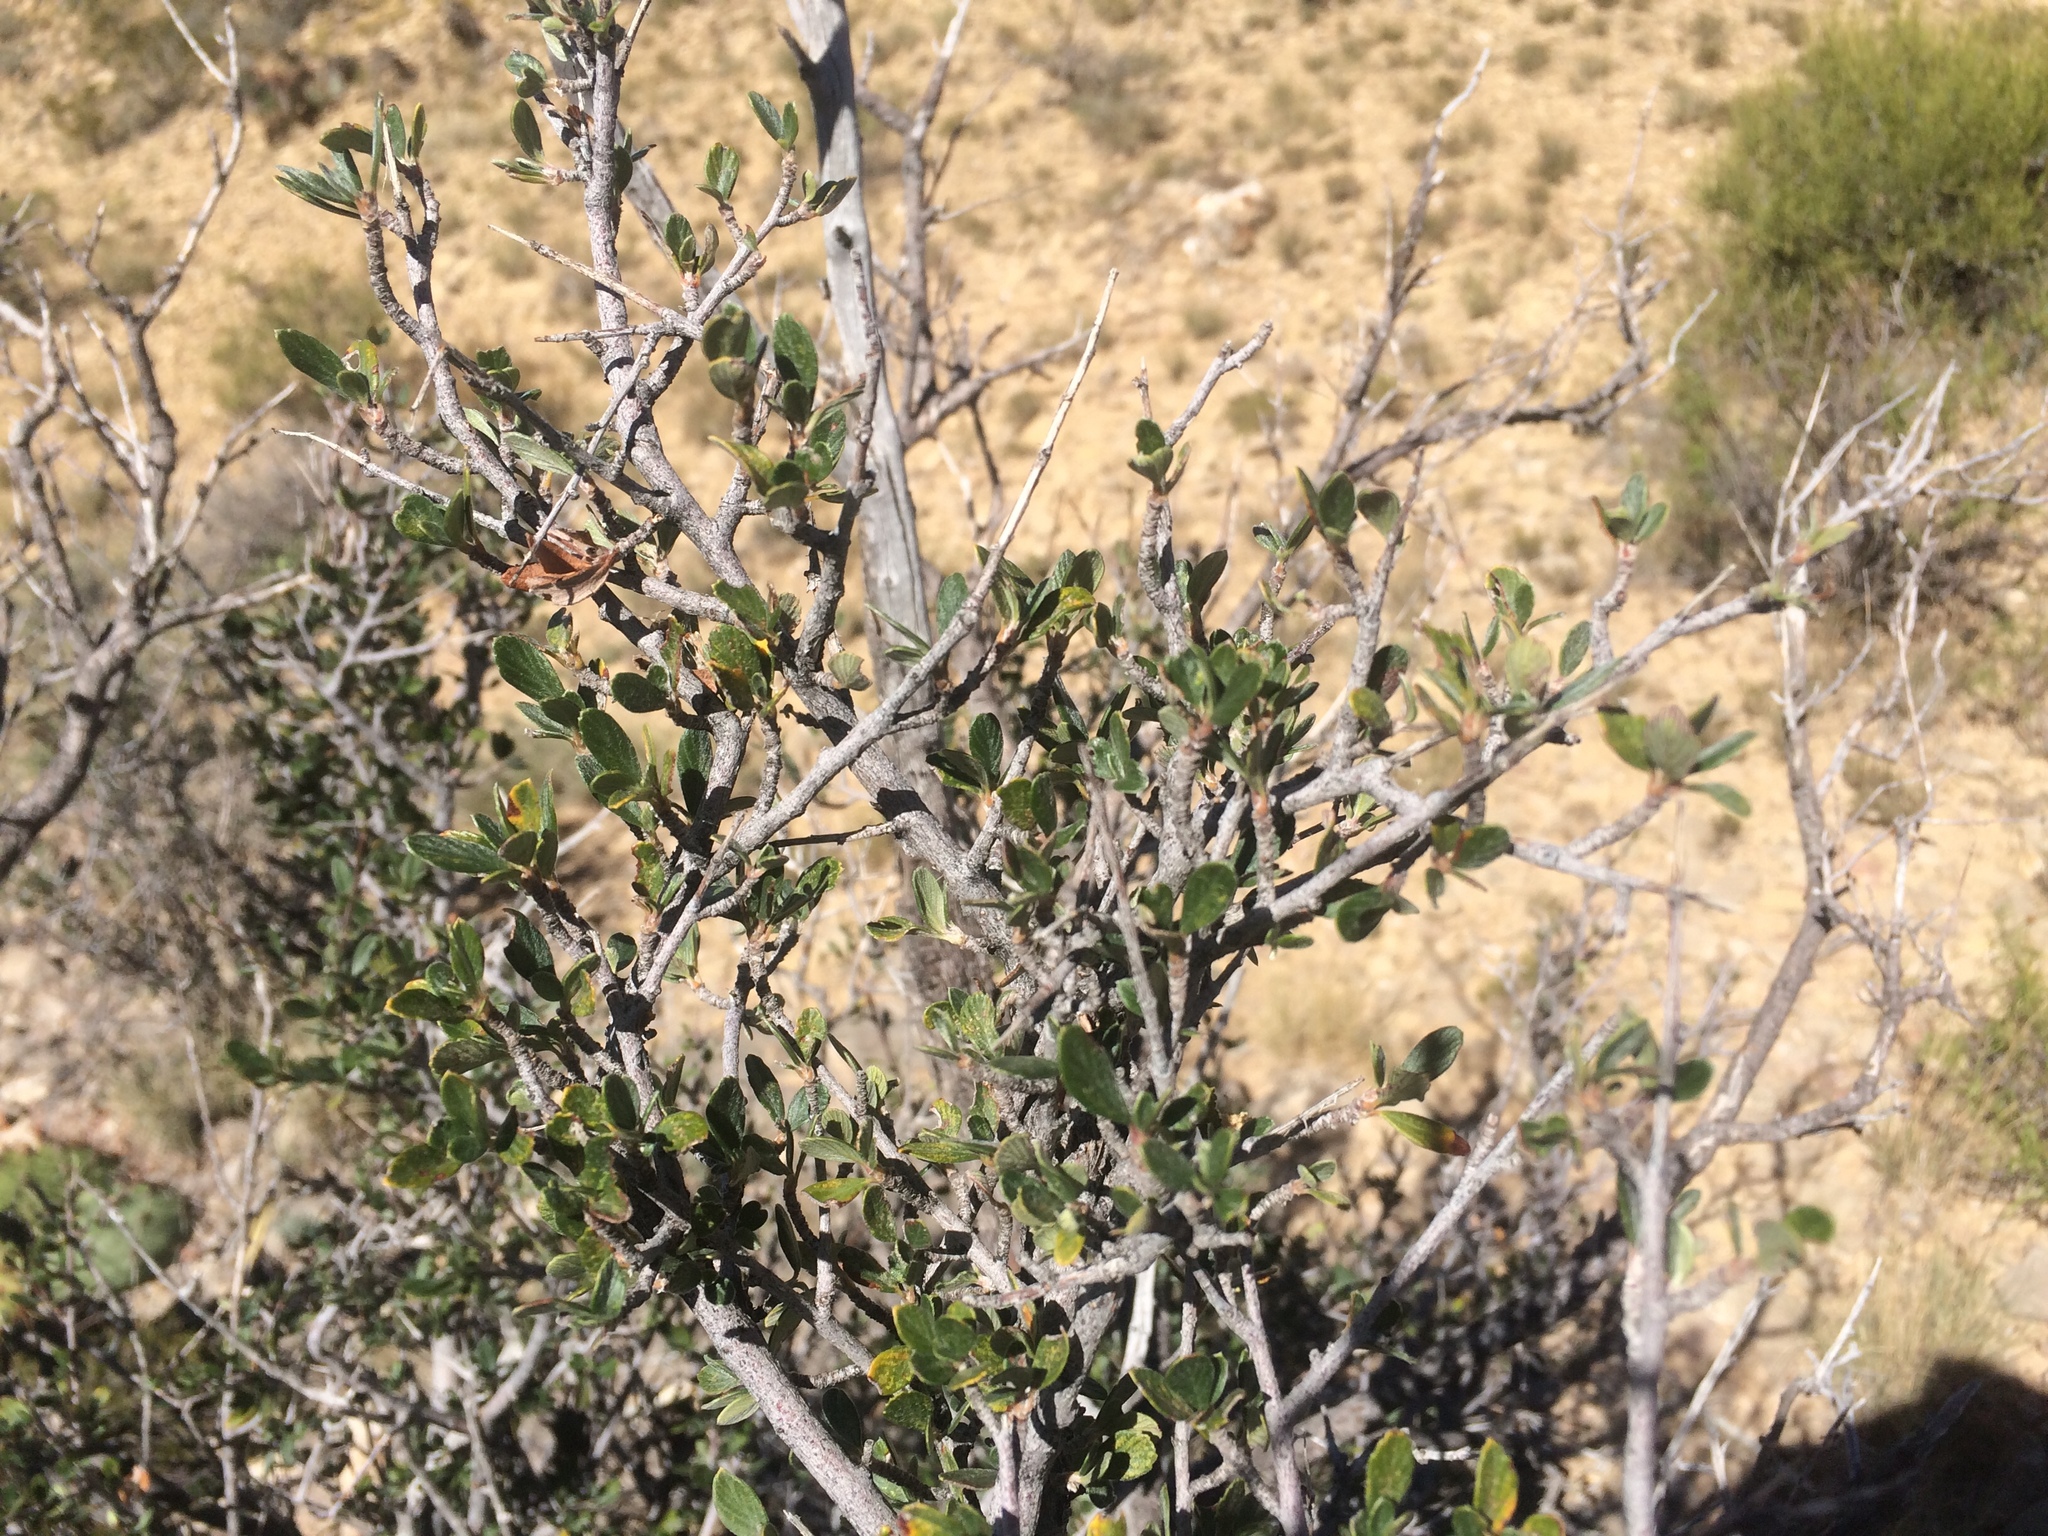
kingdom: Plantae
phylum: Tracheophyta
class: Magnoliopsida
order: Rosales
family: Rosaceae
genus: Cercocarpus
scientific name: Cercocarpus breviflorus
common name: Wright's mountain-mahogany
